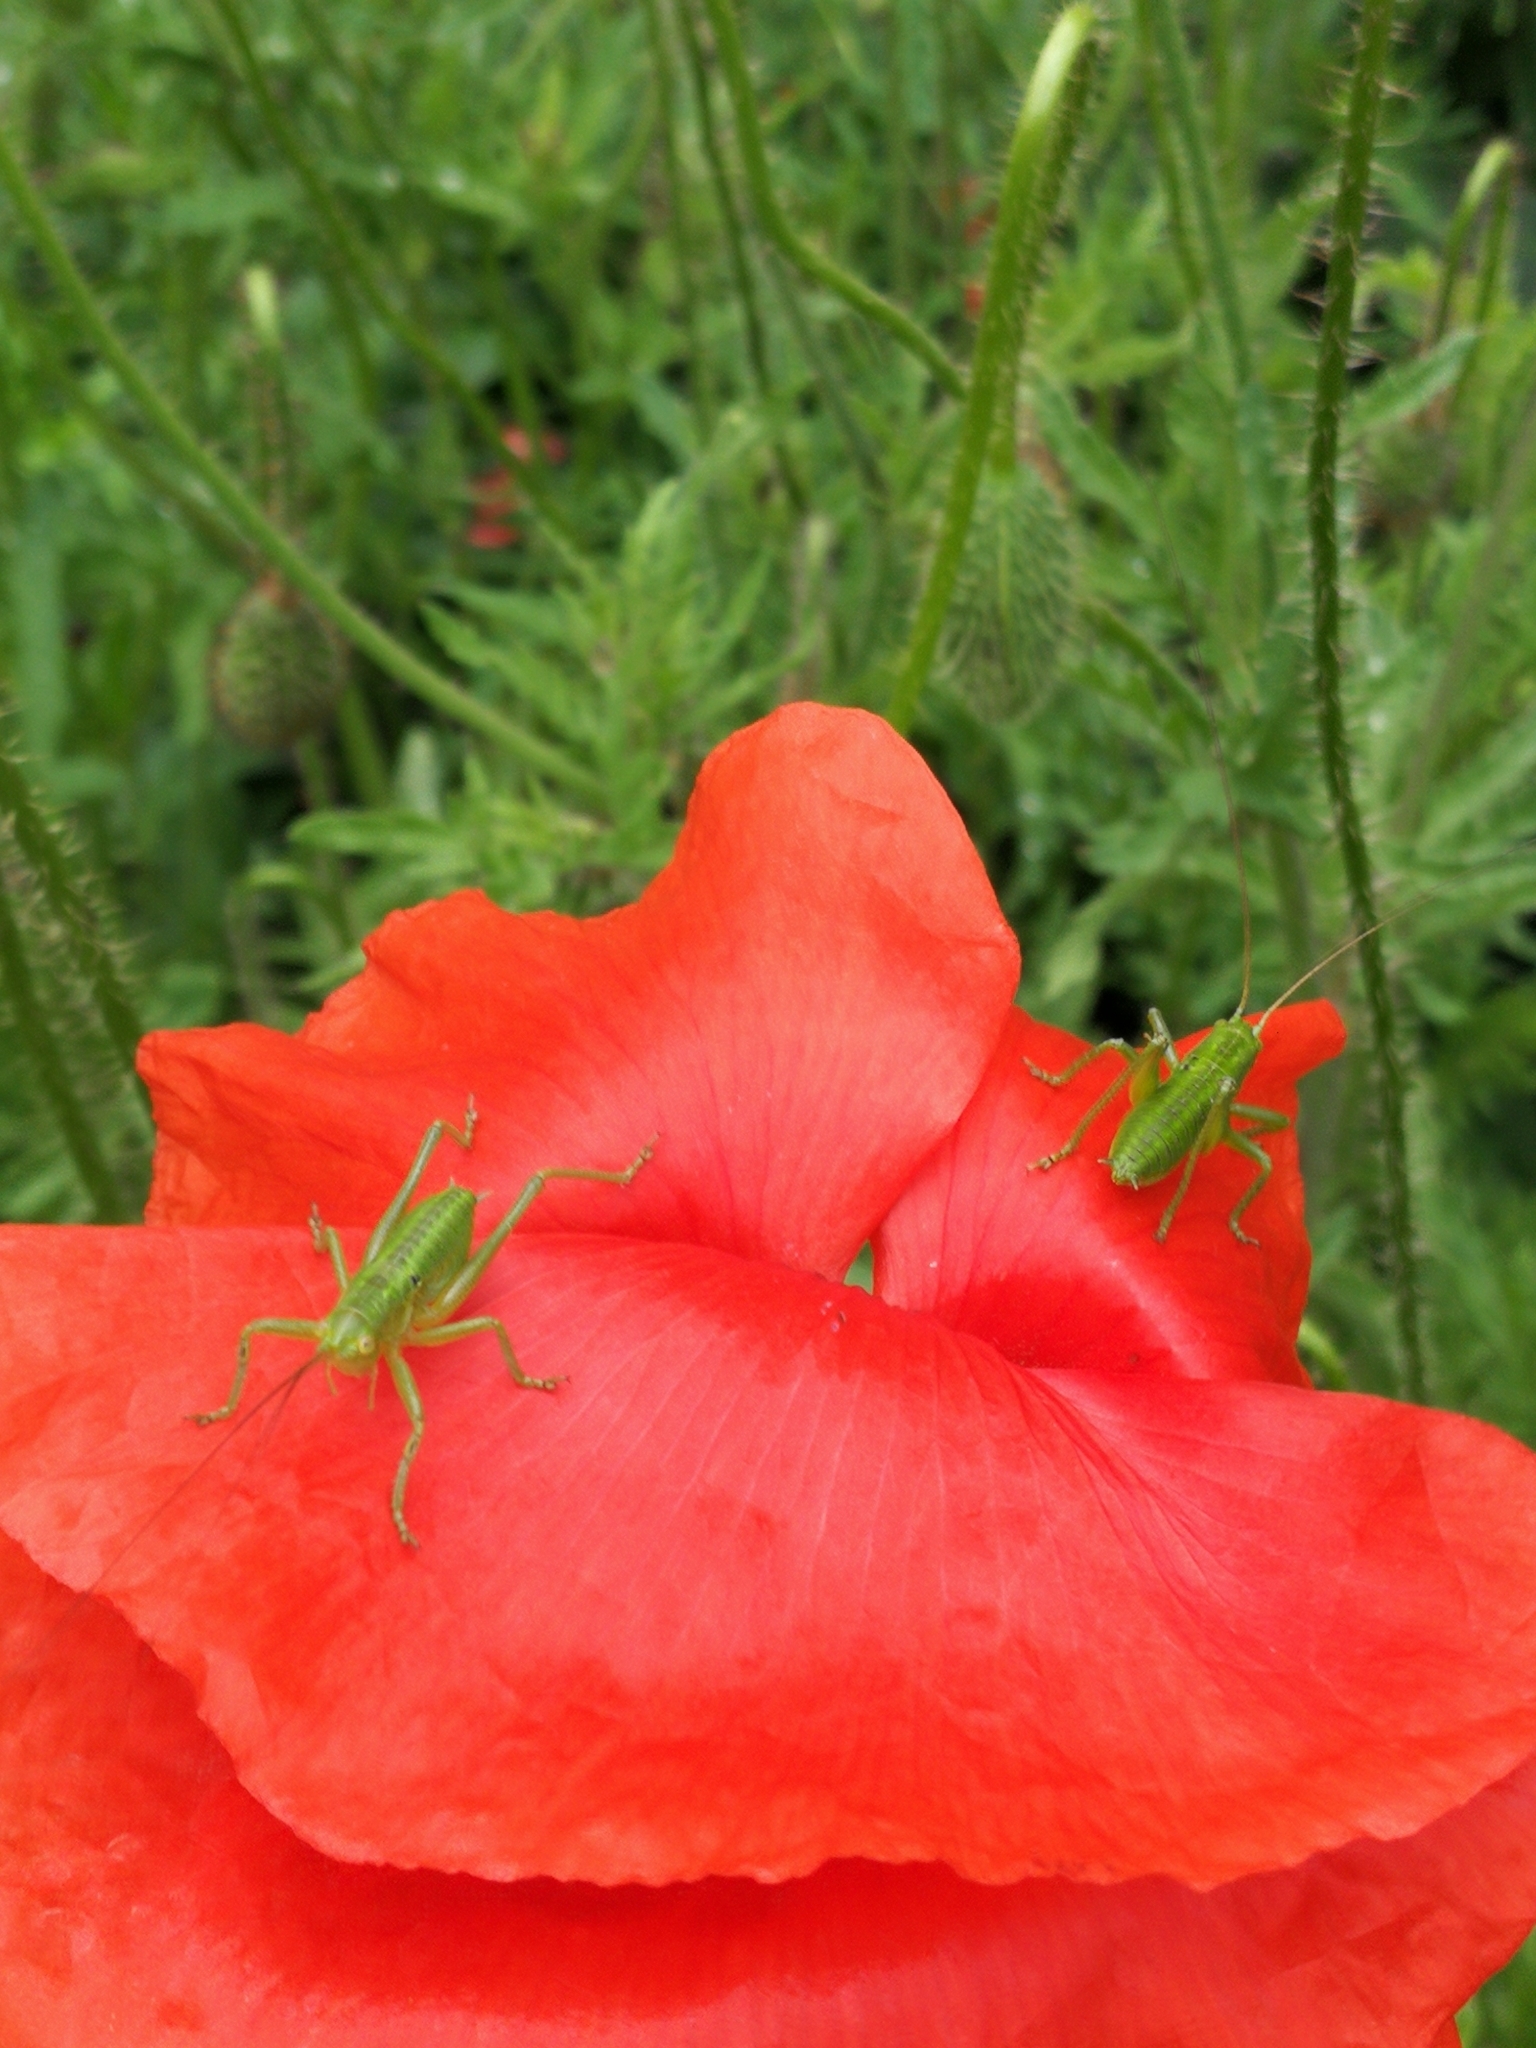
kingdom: Animalia
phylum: Arthropoda
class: Insecta
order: Orthoptera
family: Tettigoniidae
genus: Tettigonia
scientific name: Tettigonia
